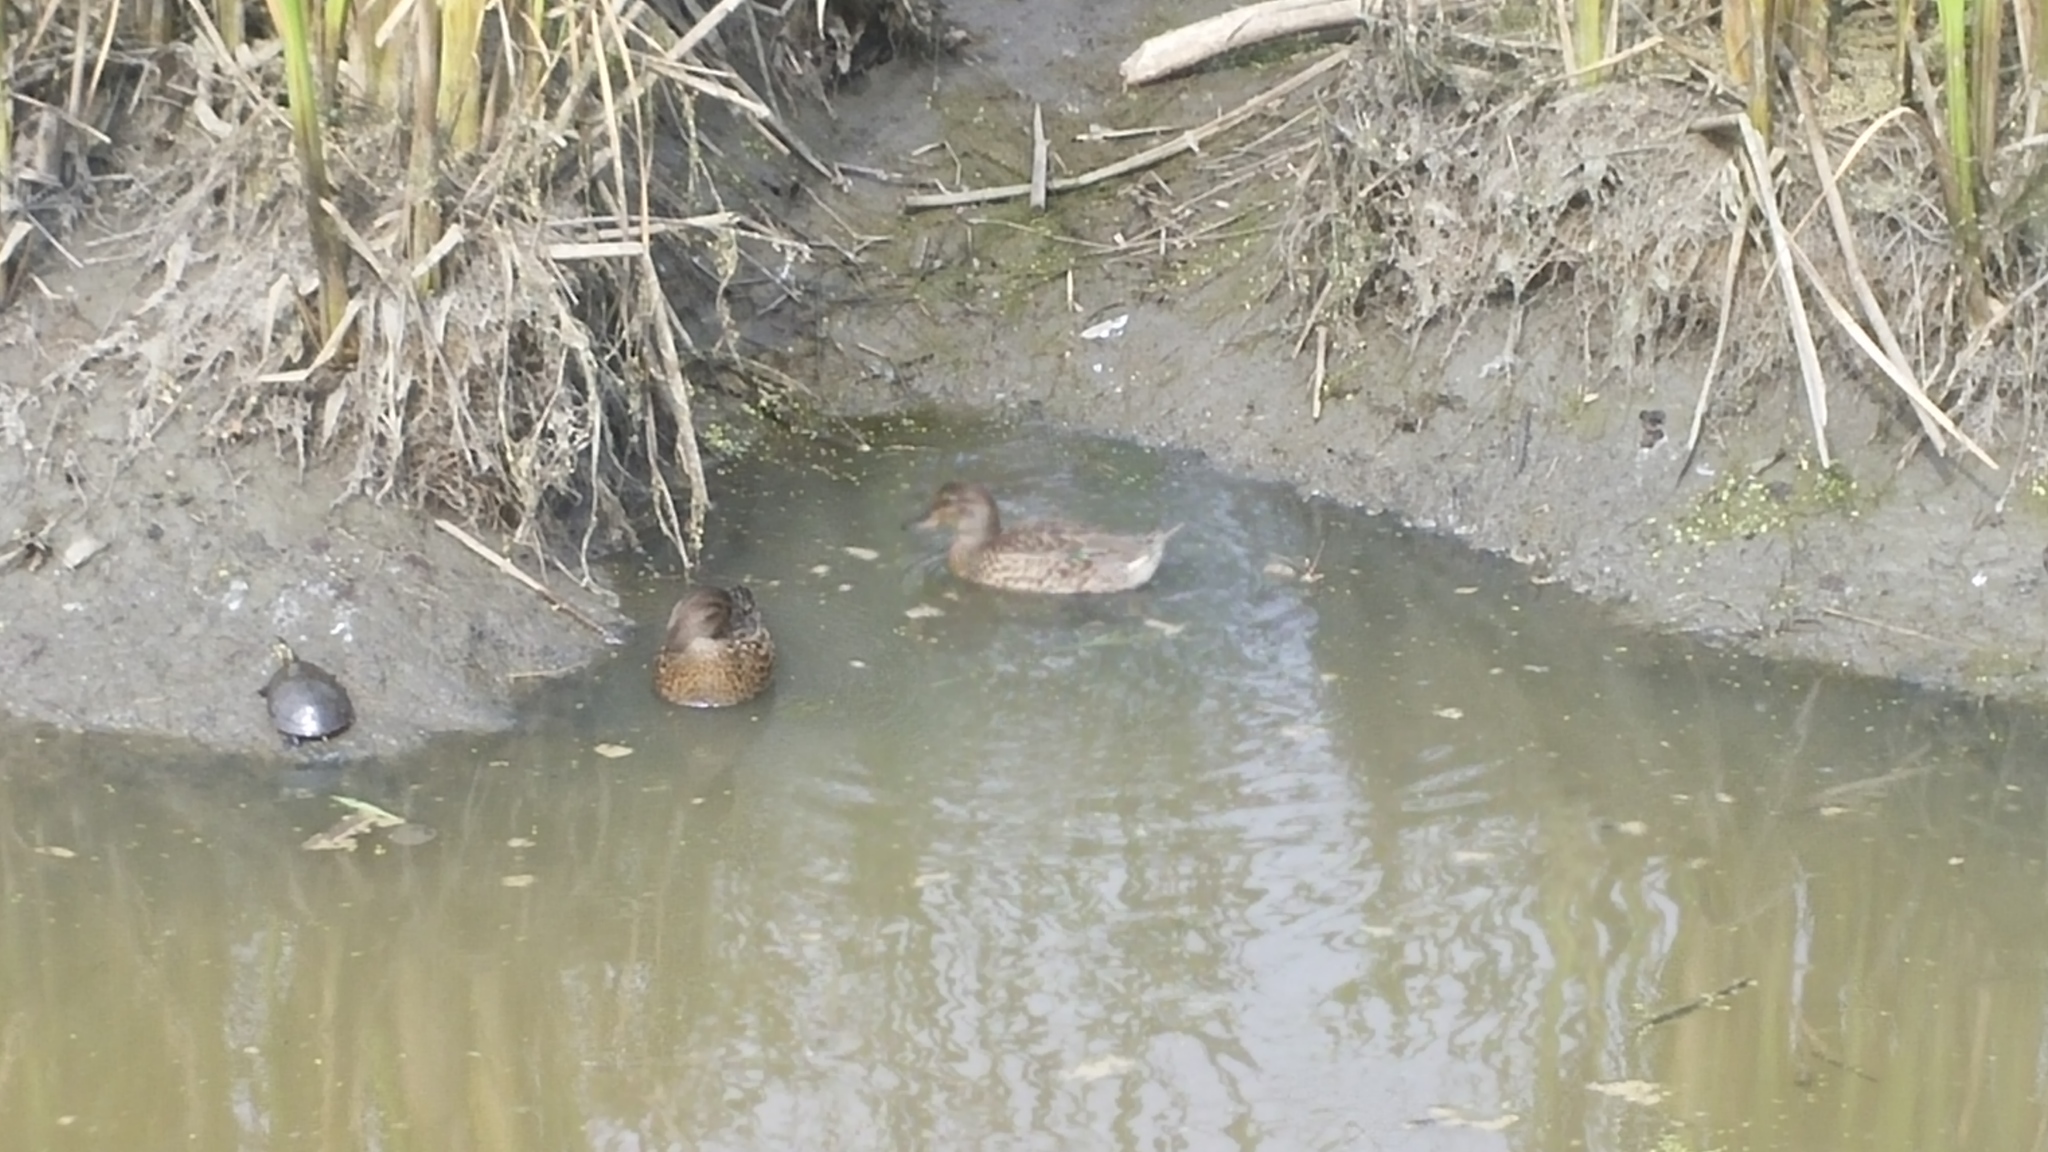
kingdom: Animalia
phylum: Chordata
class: Aves
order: Anseriformes
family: Anatidae
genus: Anas
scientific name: Anas crecca
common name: Eurasian teal
